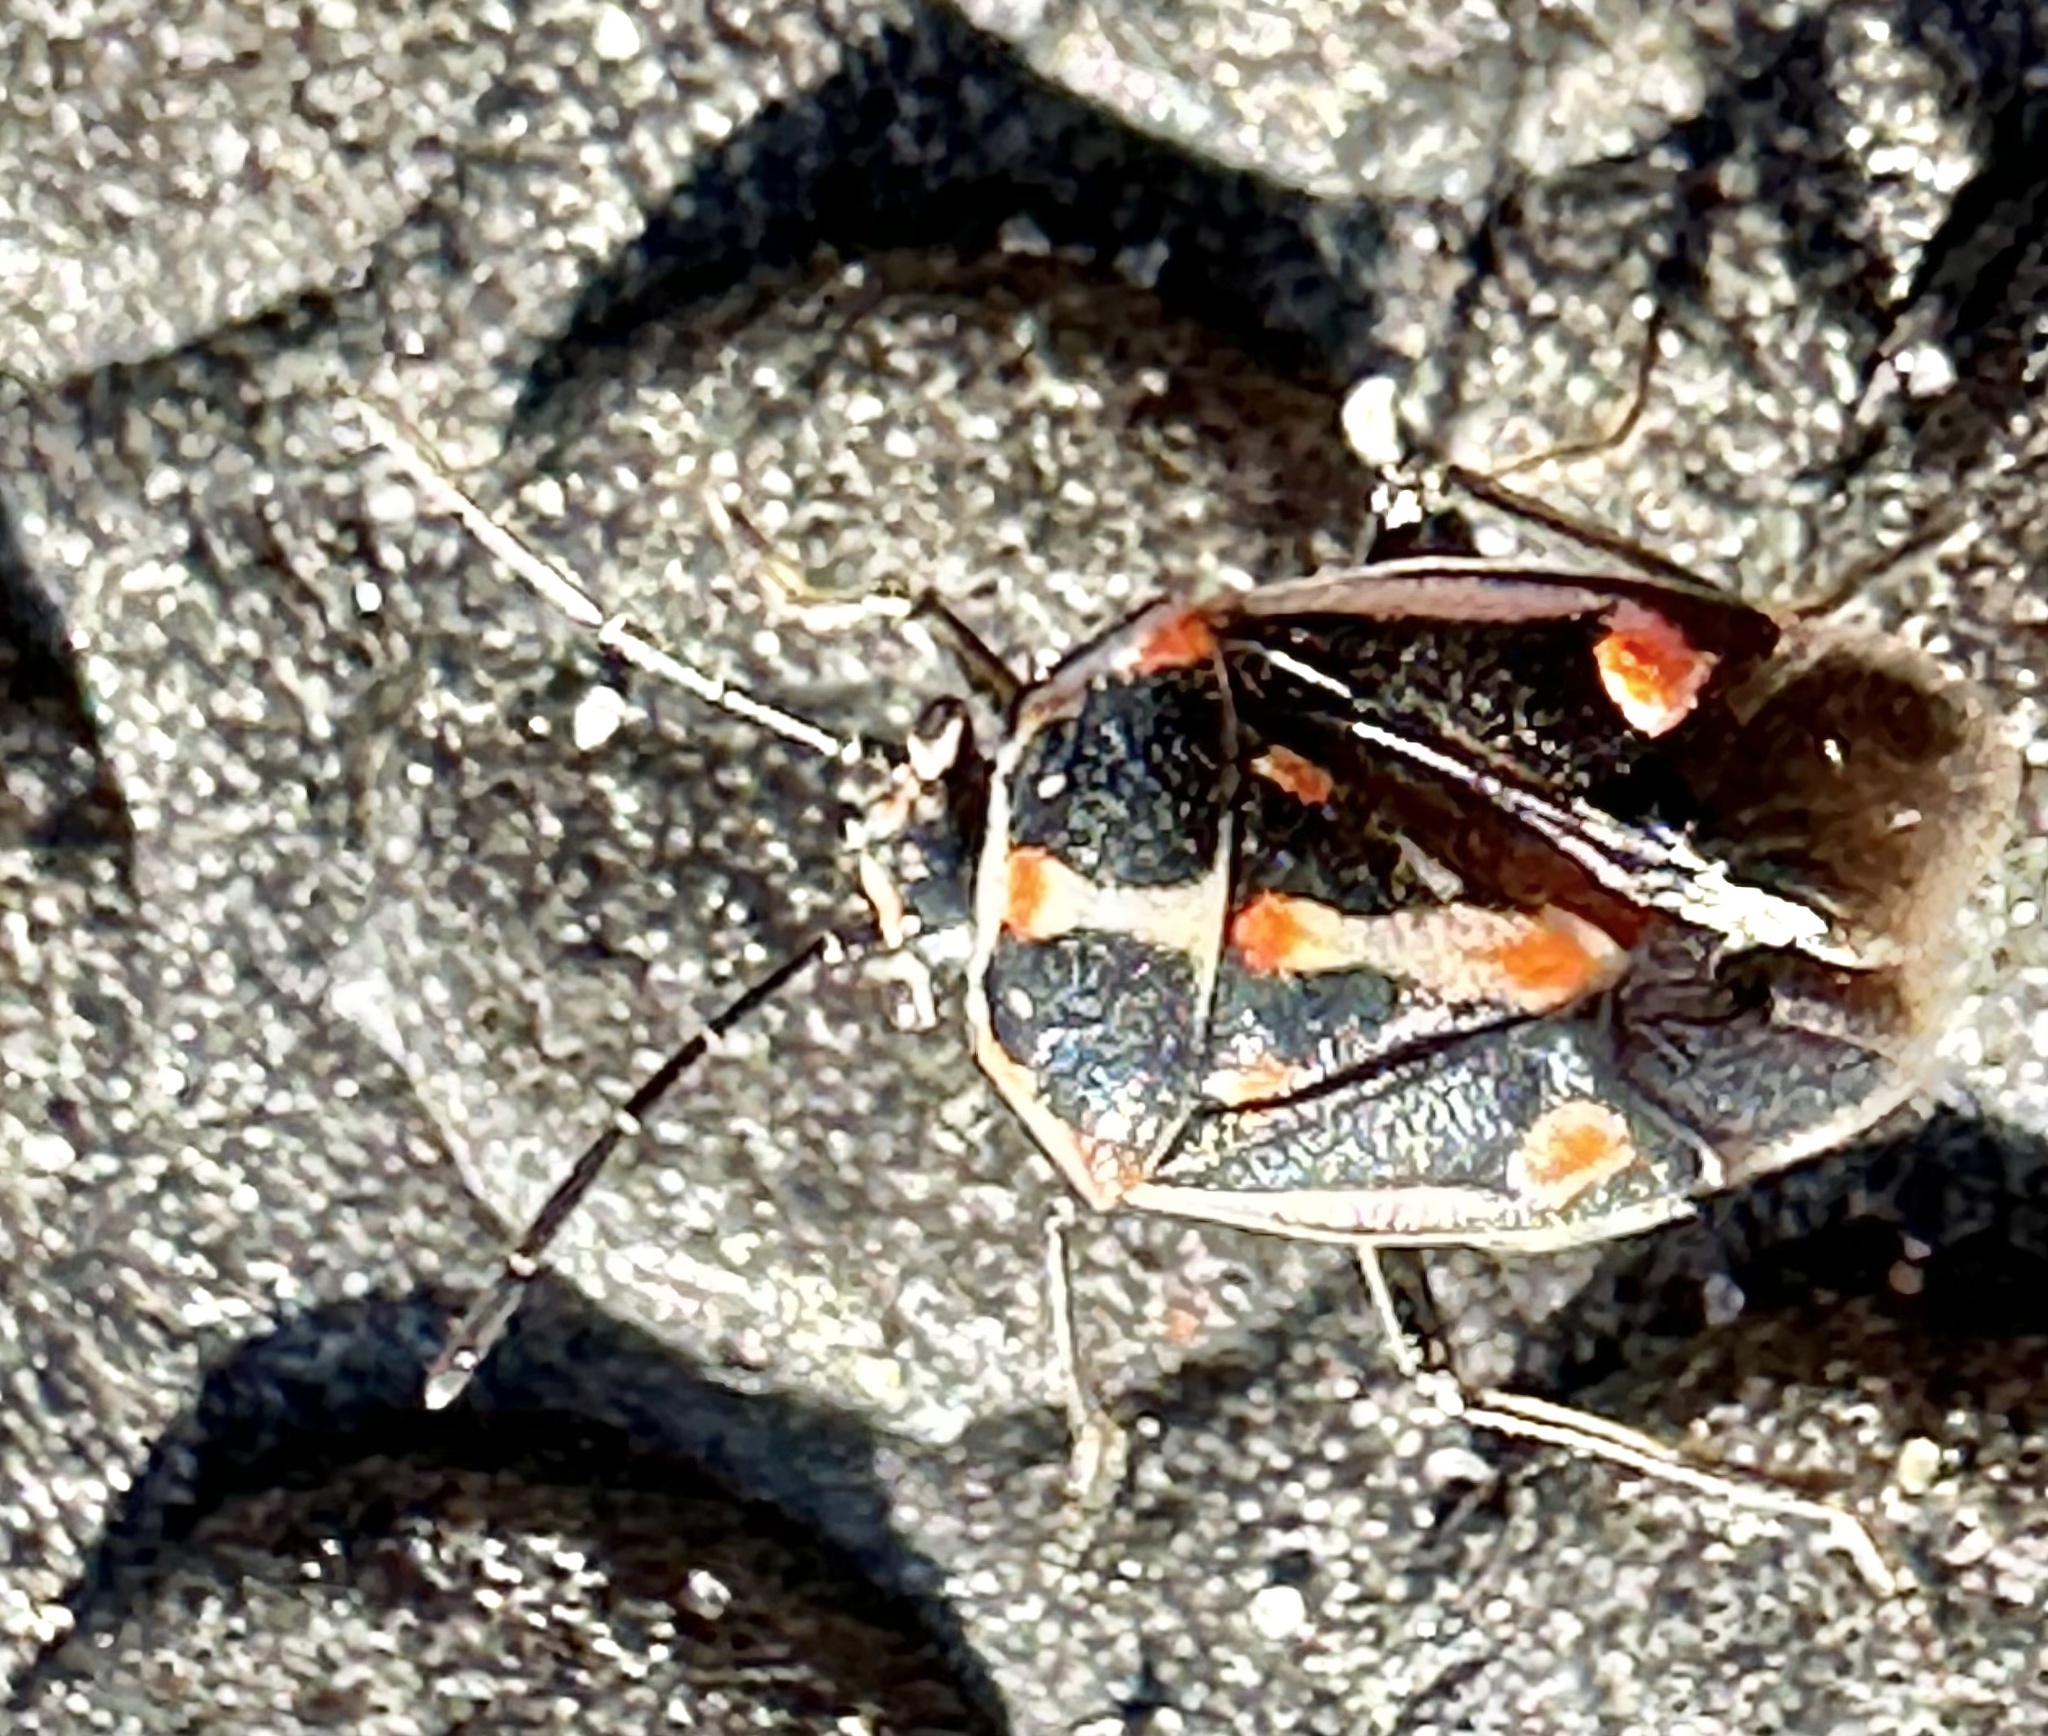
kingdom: Animalia
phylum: Arthropoda
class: Insecta
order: Hemiptera
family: Pentatomidae
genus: Bagrada
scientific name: Bagrada hilaris
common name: Bagrada bug
